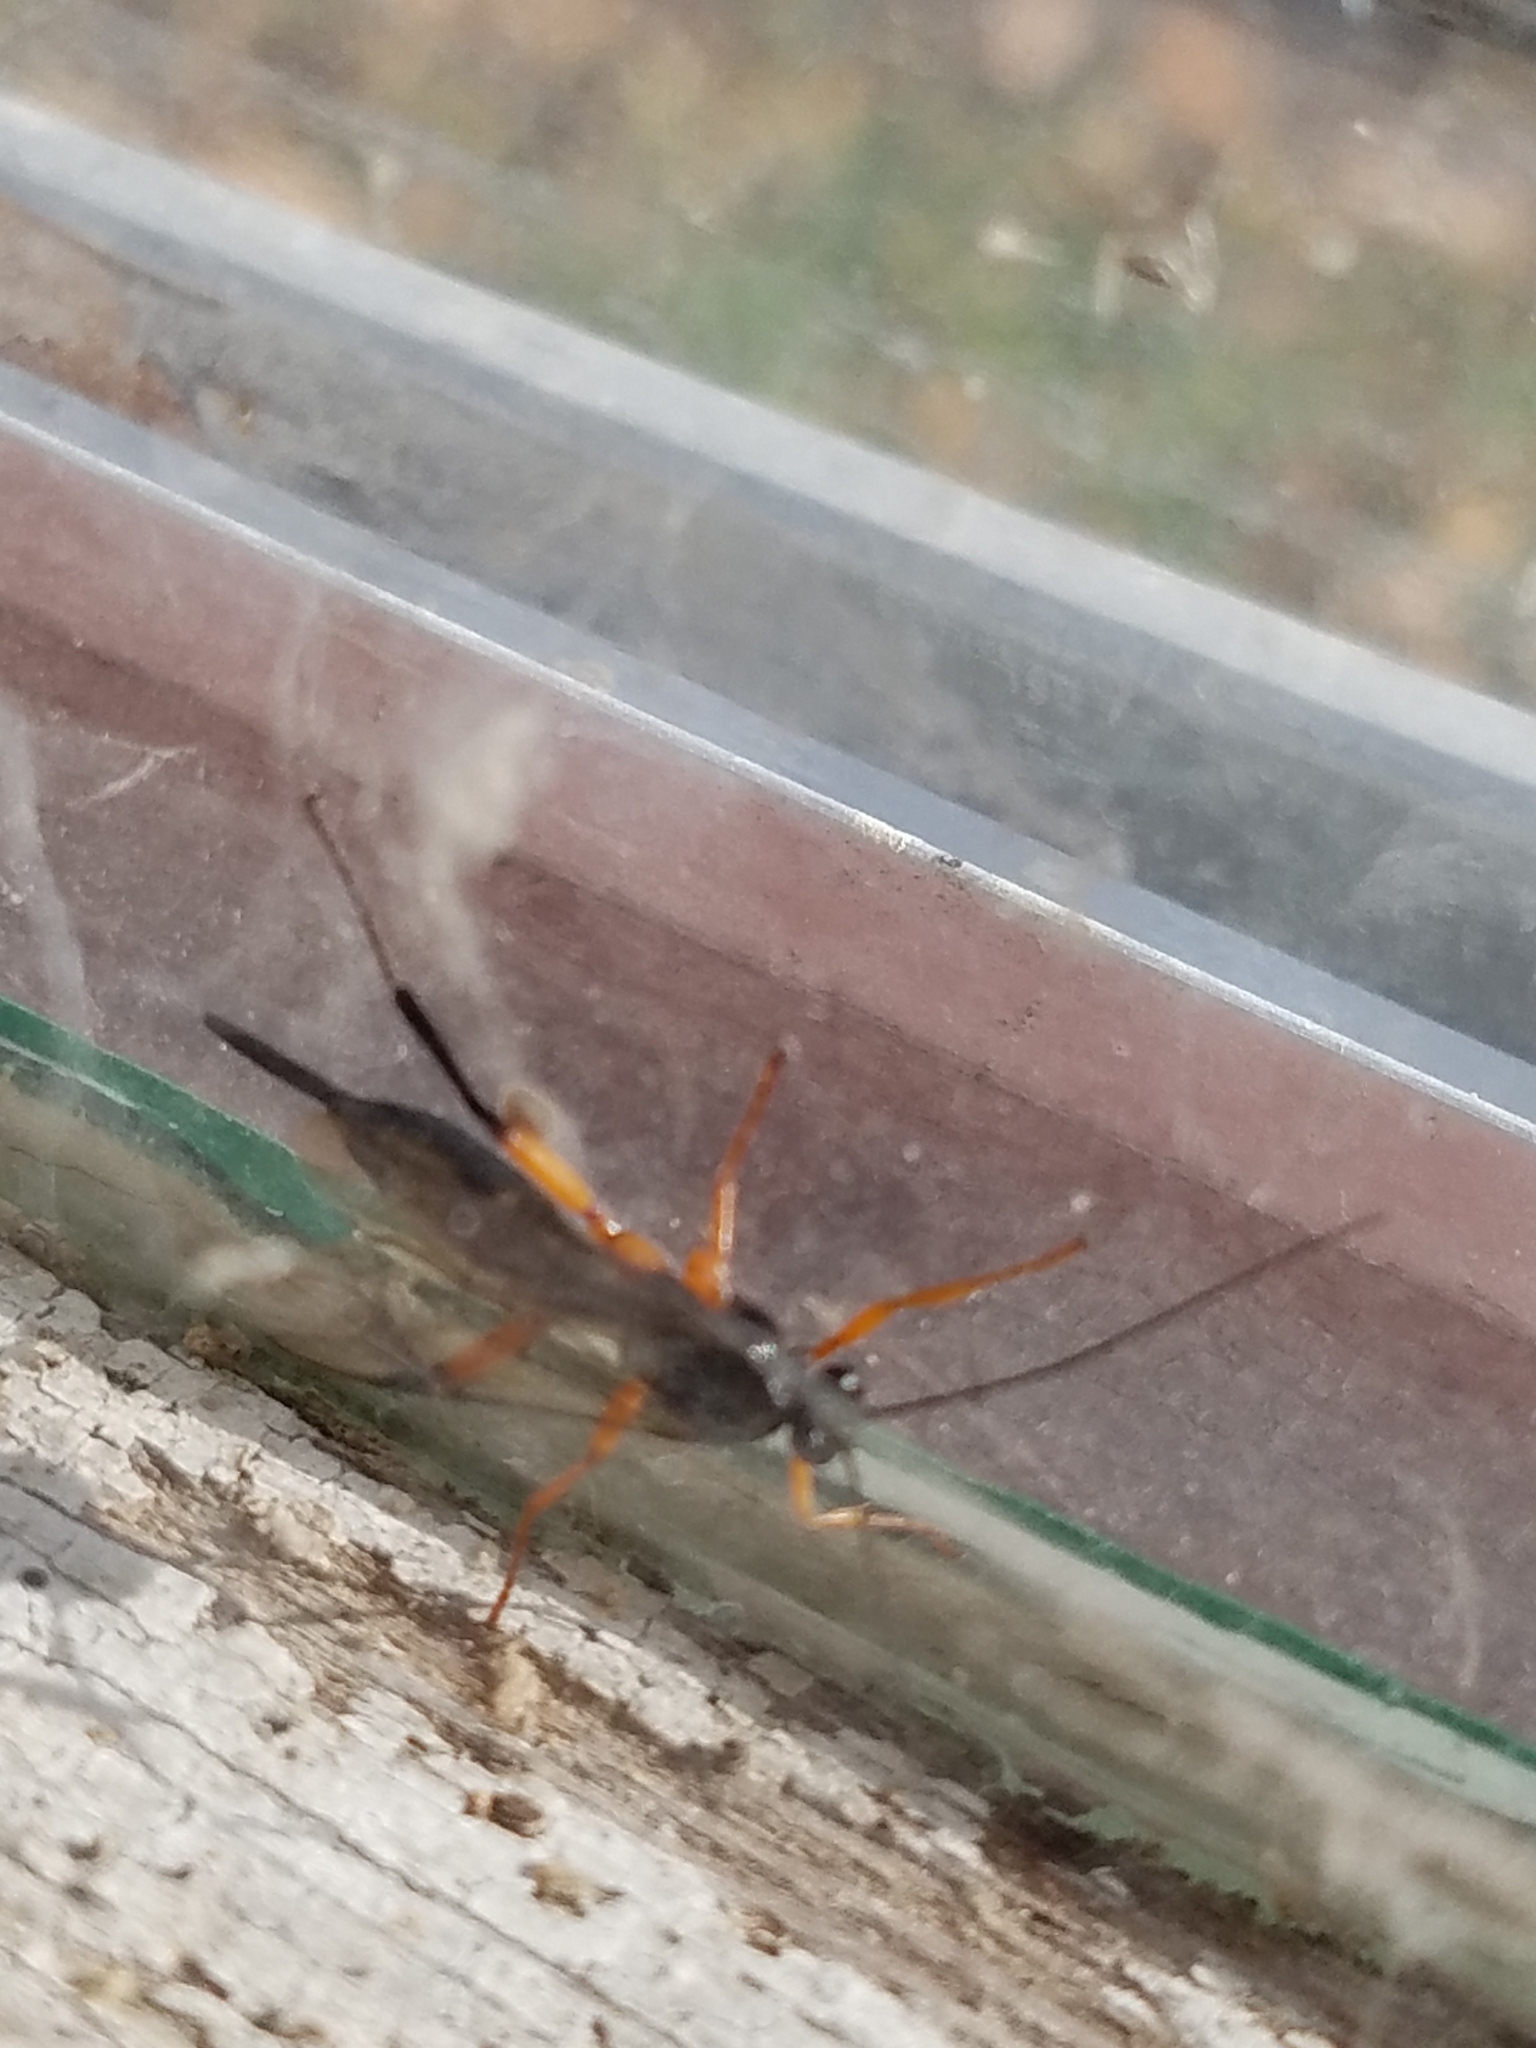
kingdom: Animalia
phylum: Arthropoda
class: Insecta
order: Hymenoptera
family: Ichneumonidae
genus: Pimpla
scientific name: Pimpla pedalis
